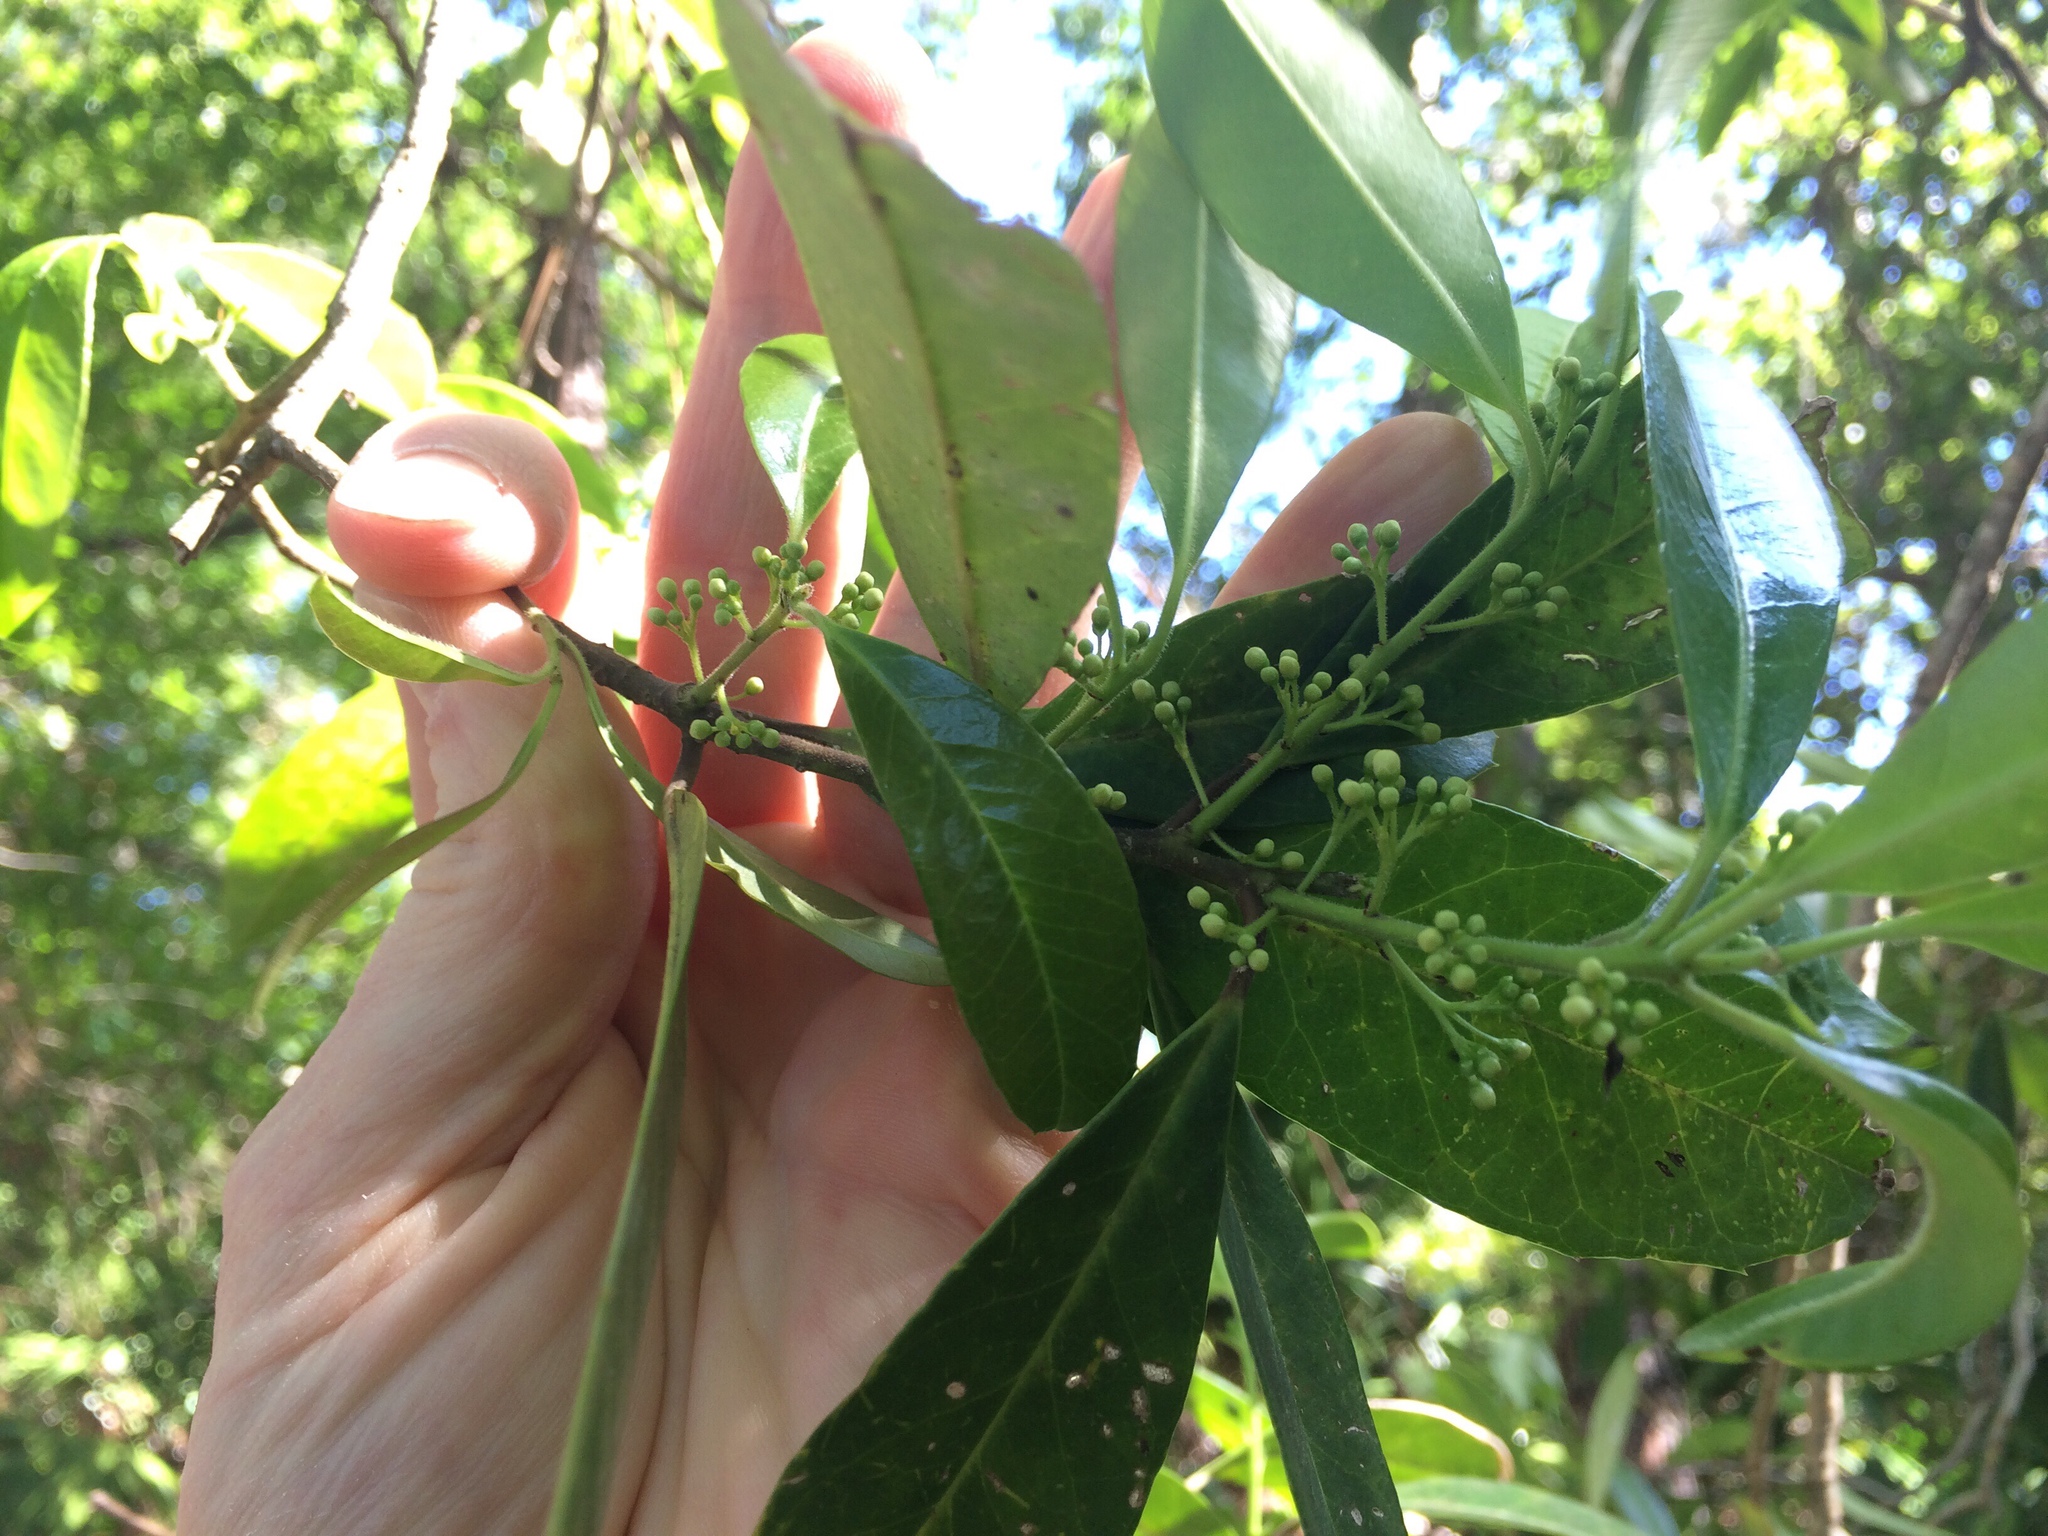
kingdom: Plantae
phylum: Tracheophyta
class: Magnoliopsida
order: Aquifoliales
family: Aquifoliaceae
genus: Ilex
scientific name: Ilex cassine
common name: Dahoon
